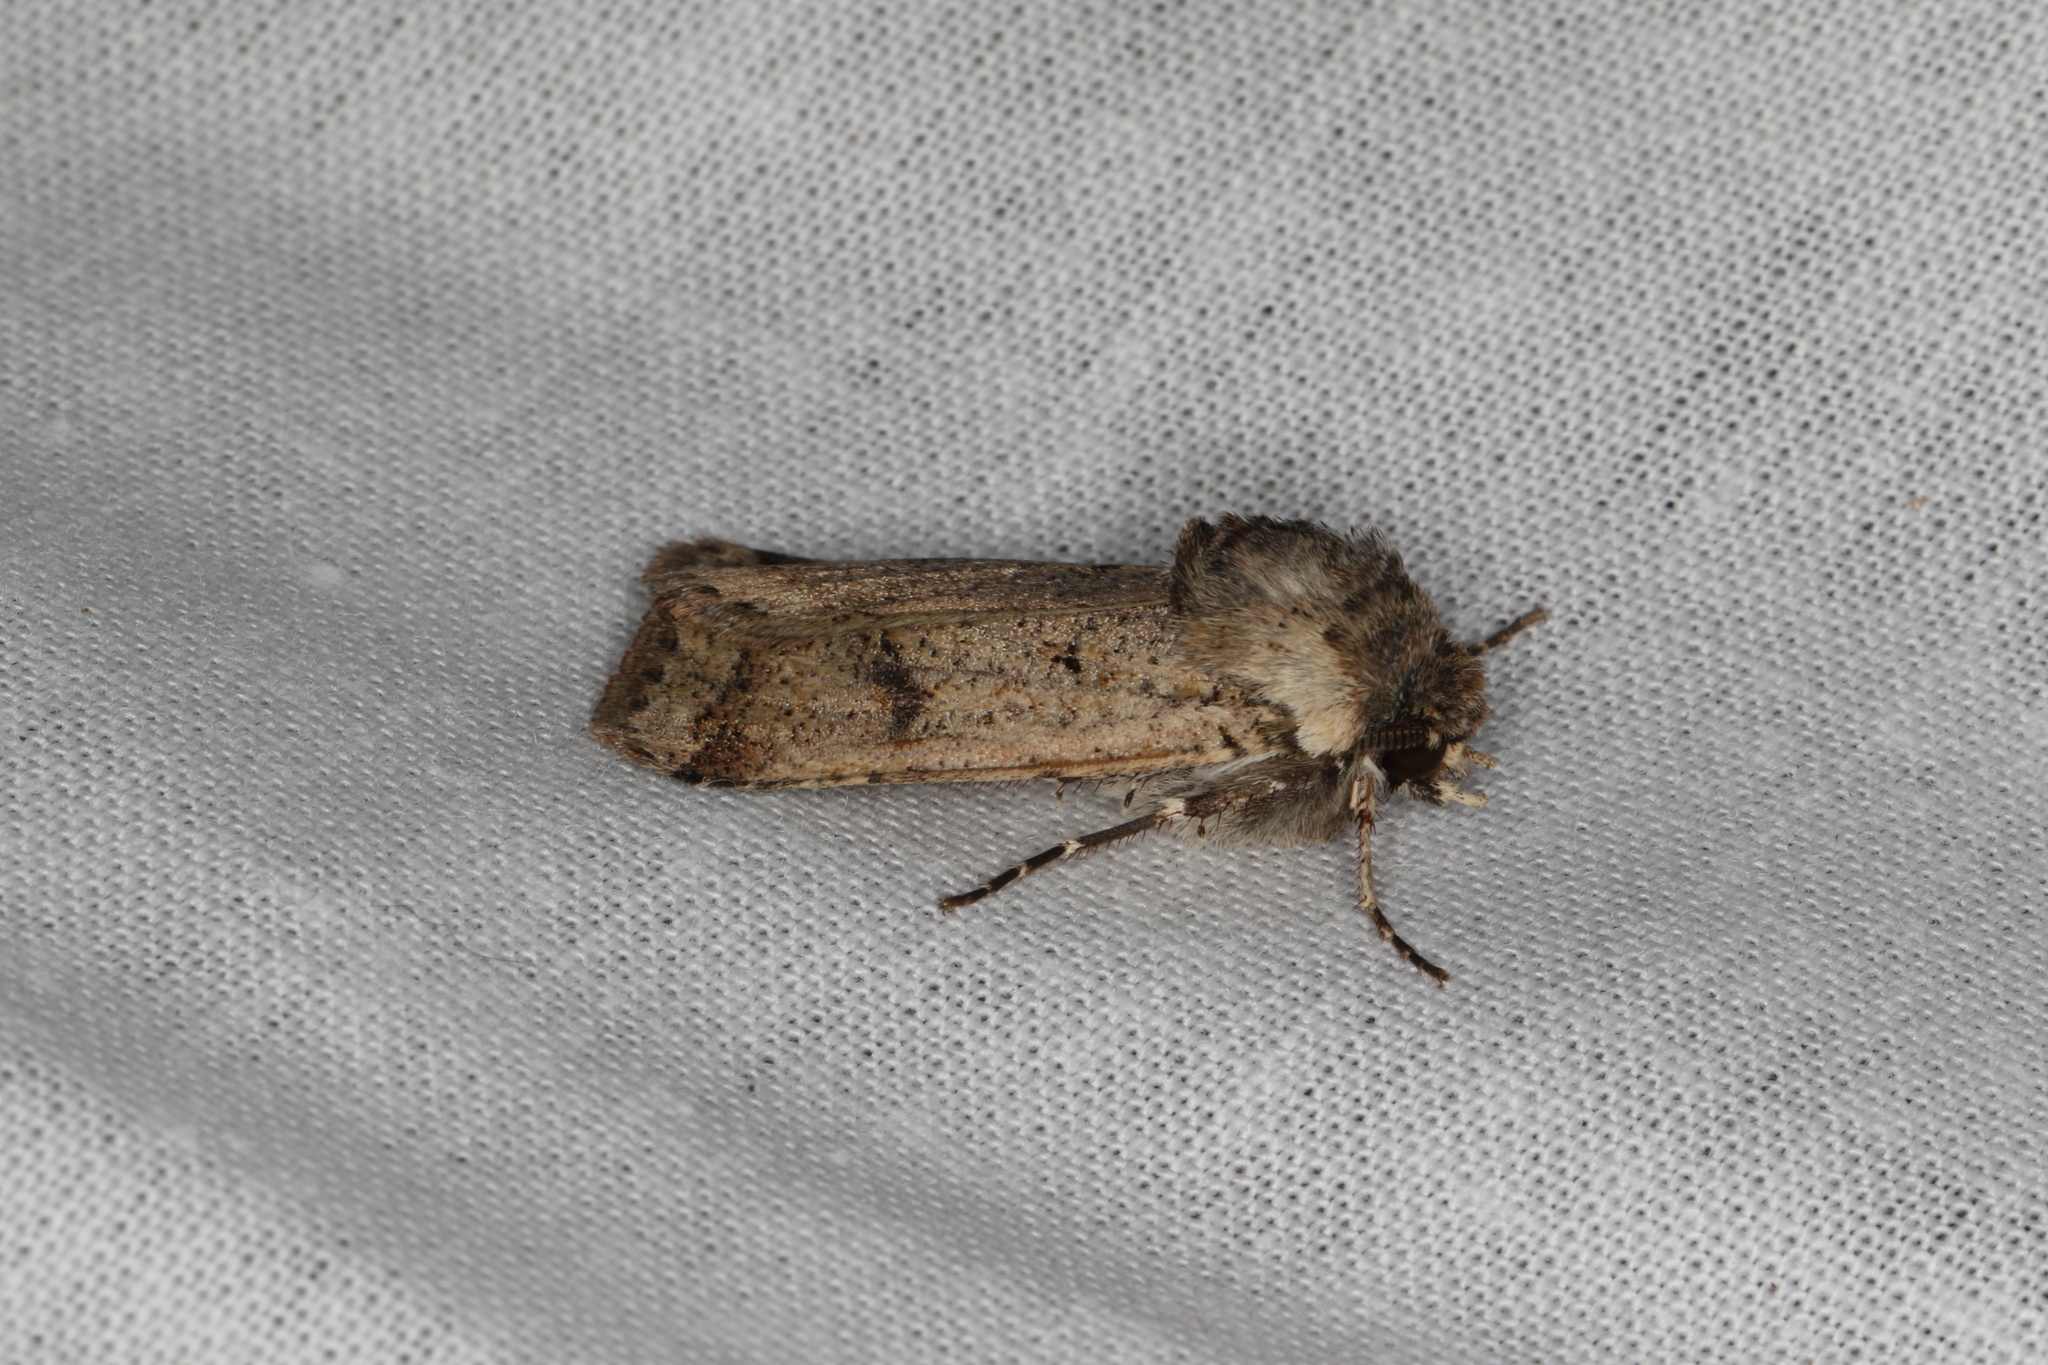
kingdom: Animalia
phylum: Arthropoda
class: Insecta
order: Lepidoptera
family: Noctuidae
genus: Agrotis
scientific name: Agrotis porphyricollis
